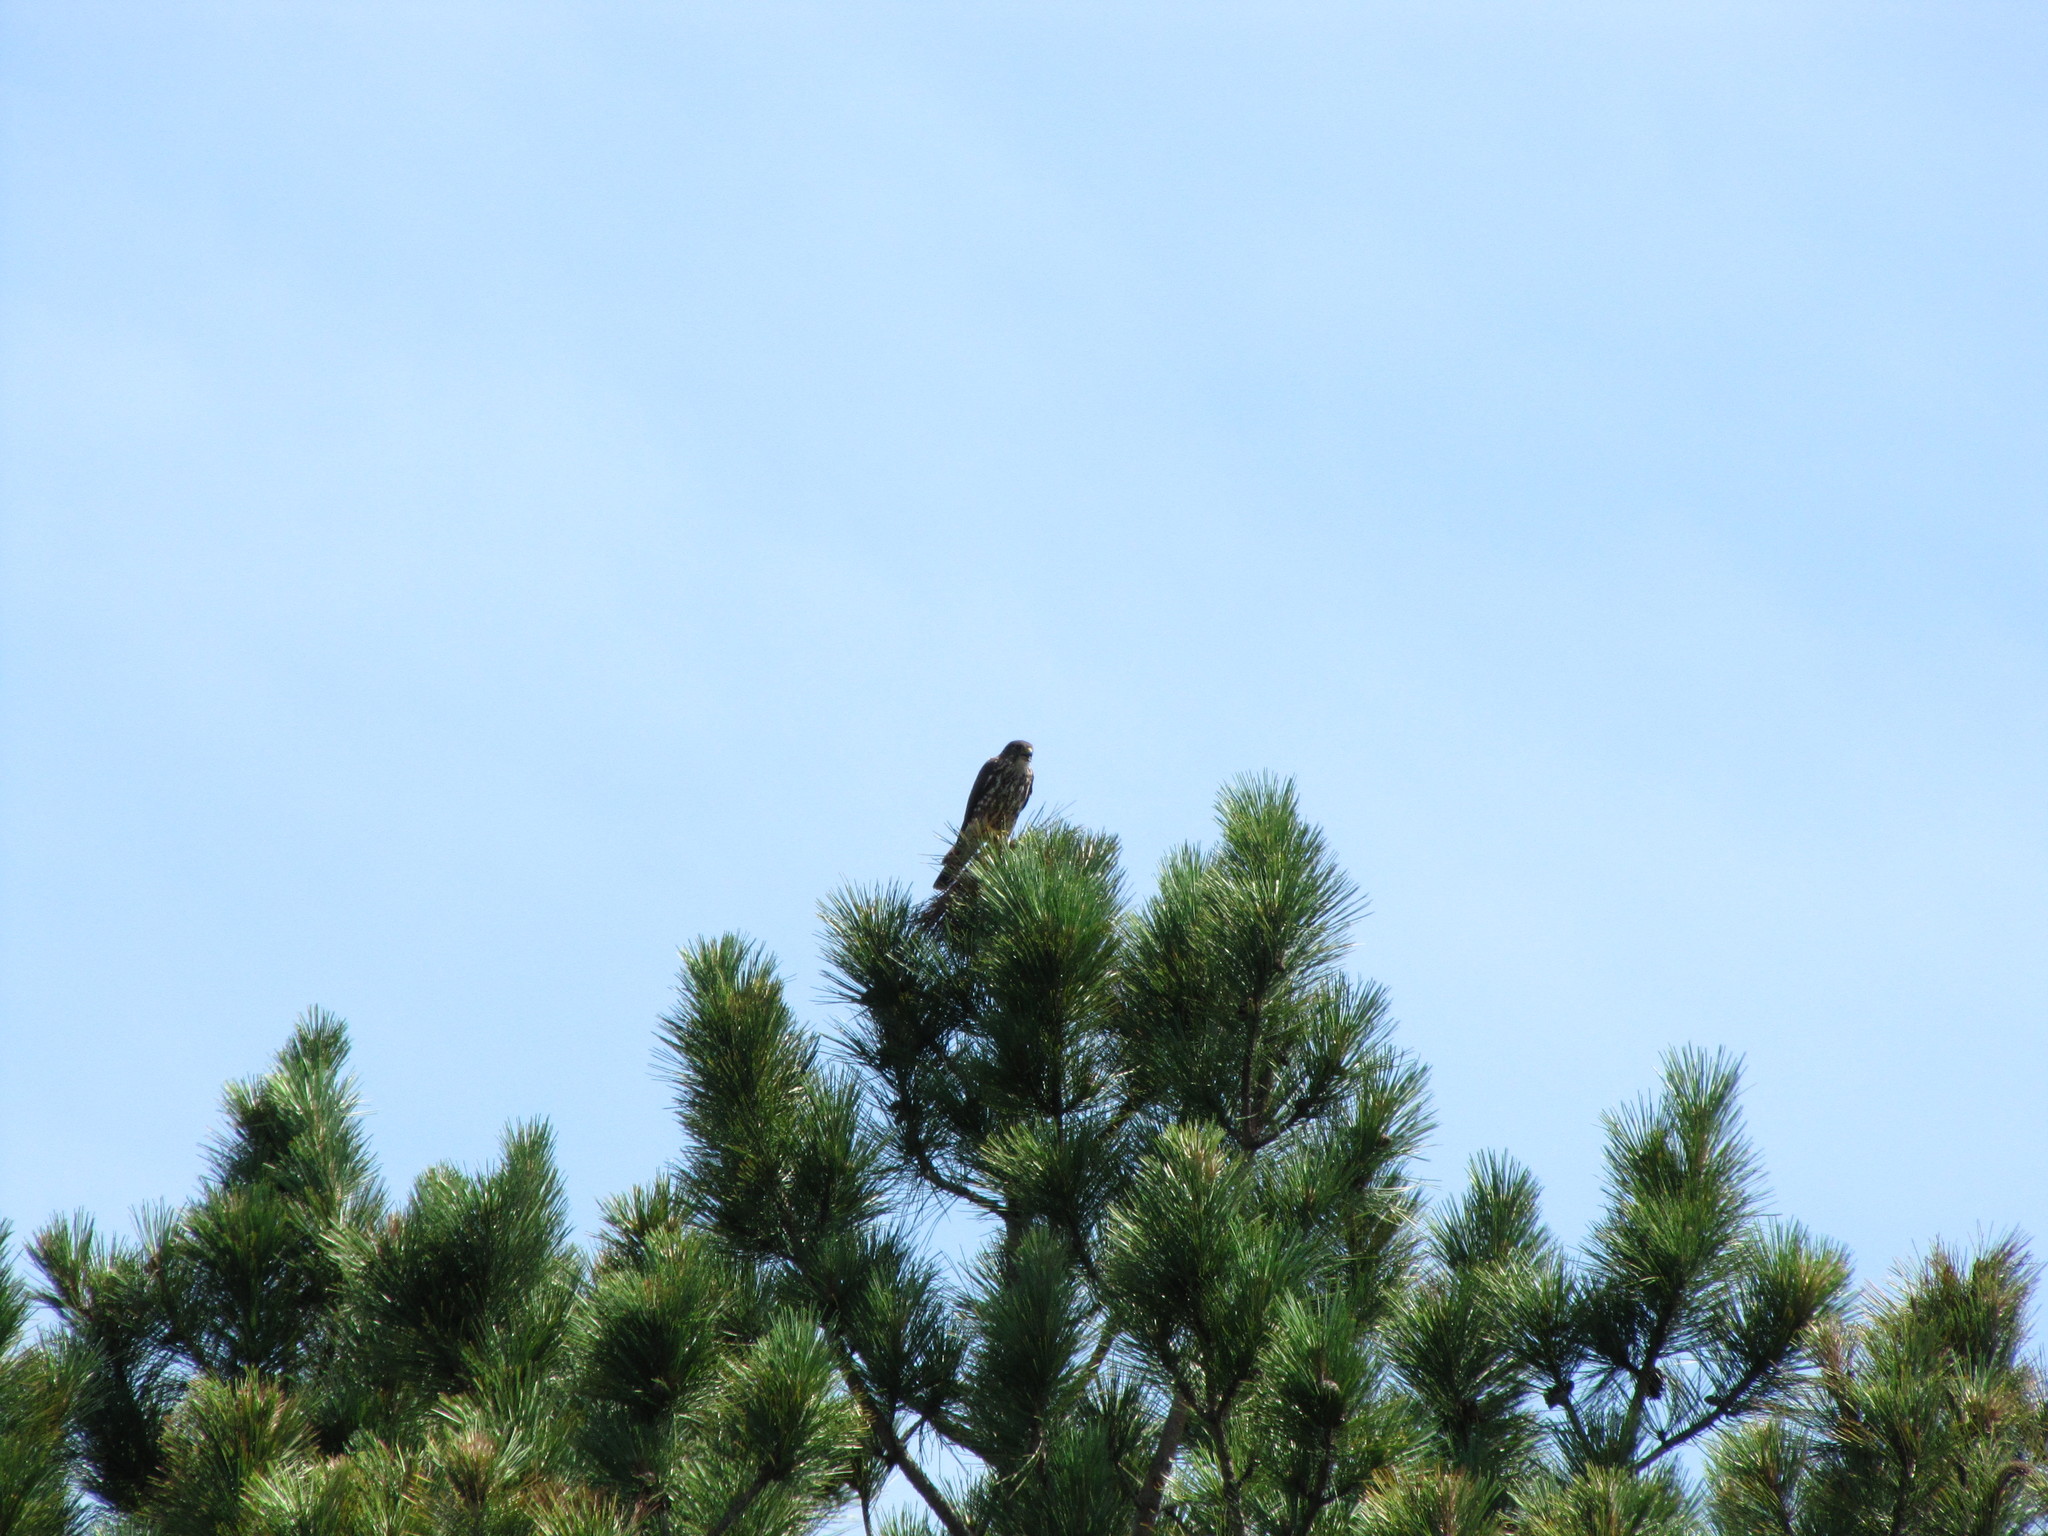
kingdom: Animalia
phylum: Chordata
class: Aves
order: Falconiformes
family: Falconidae
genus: Falco
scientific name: Falco columbarius
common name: Merlin
